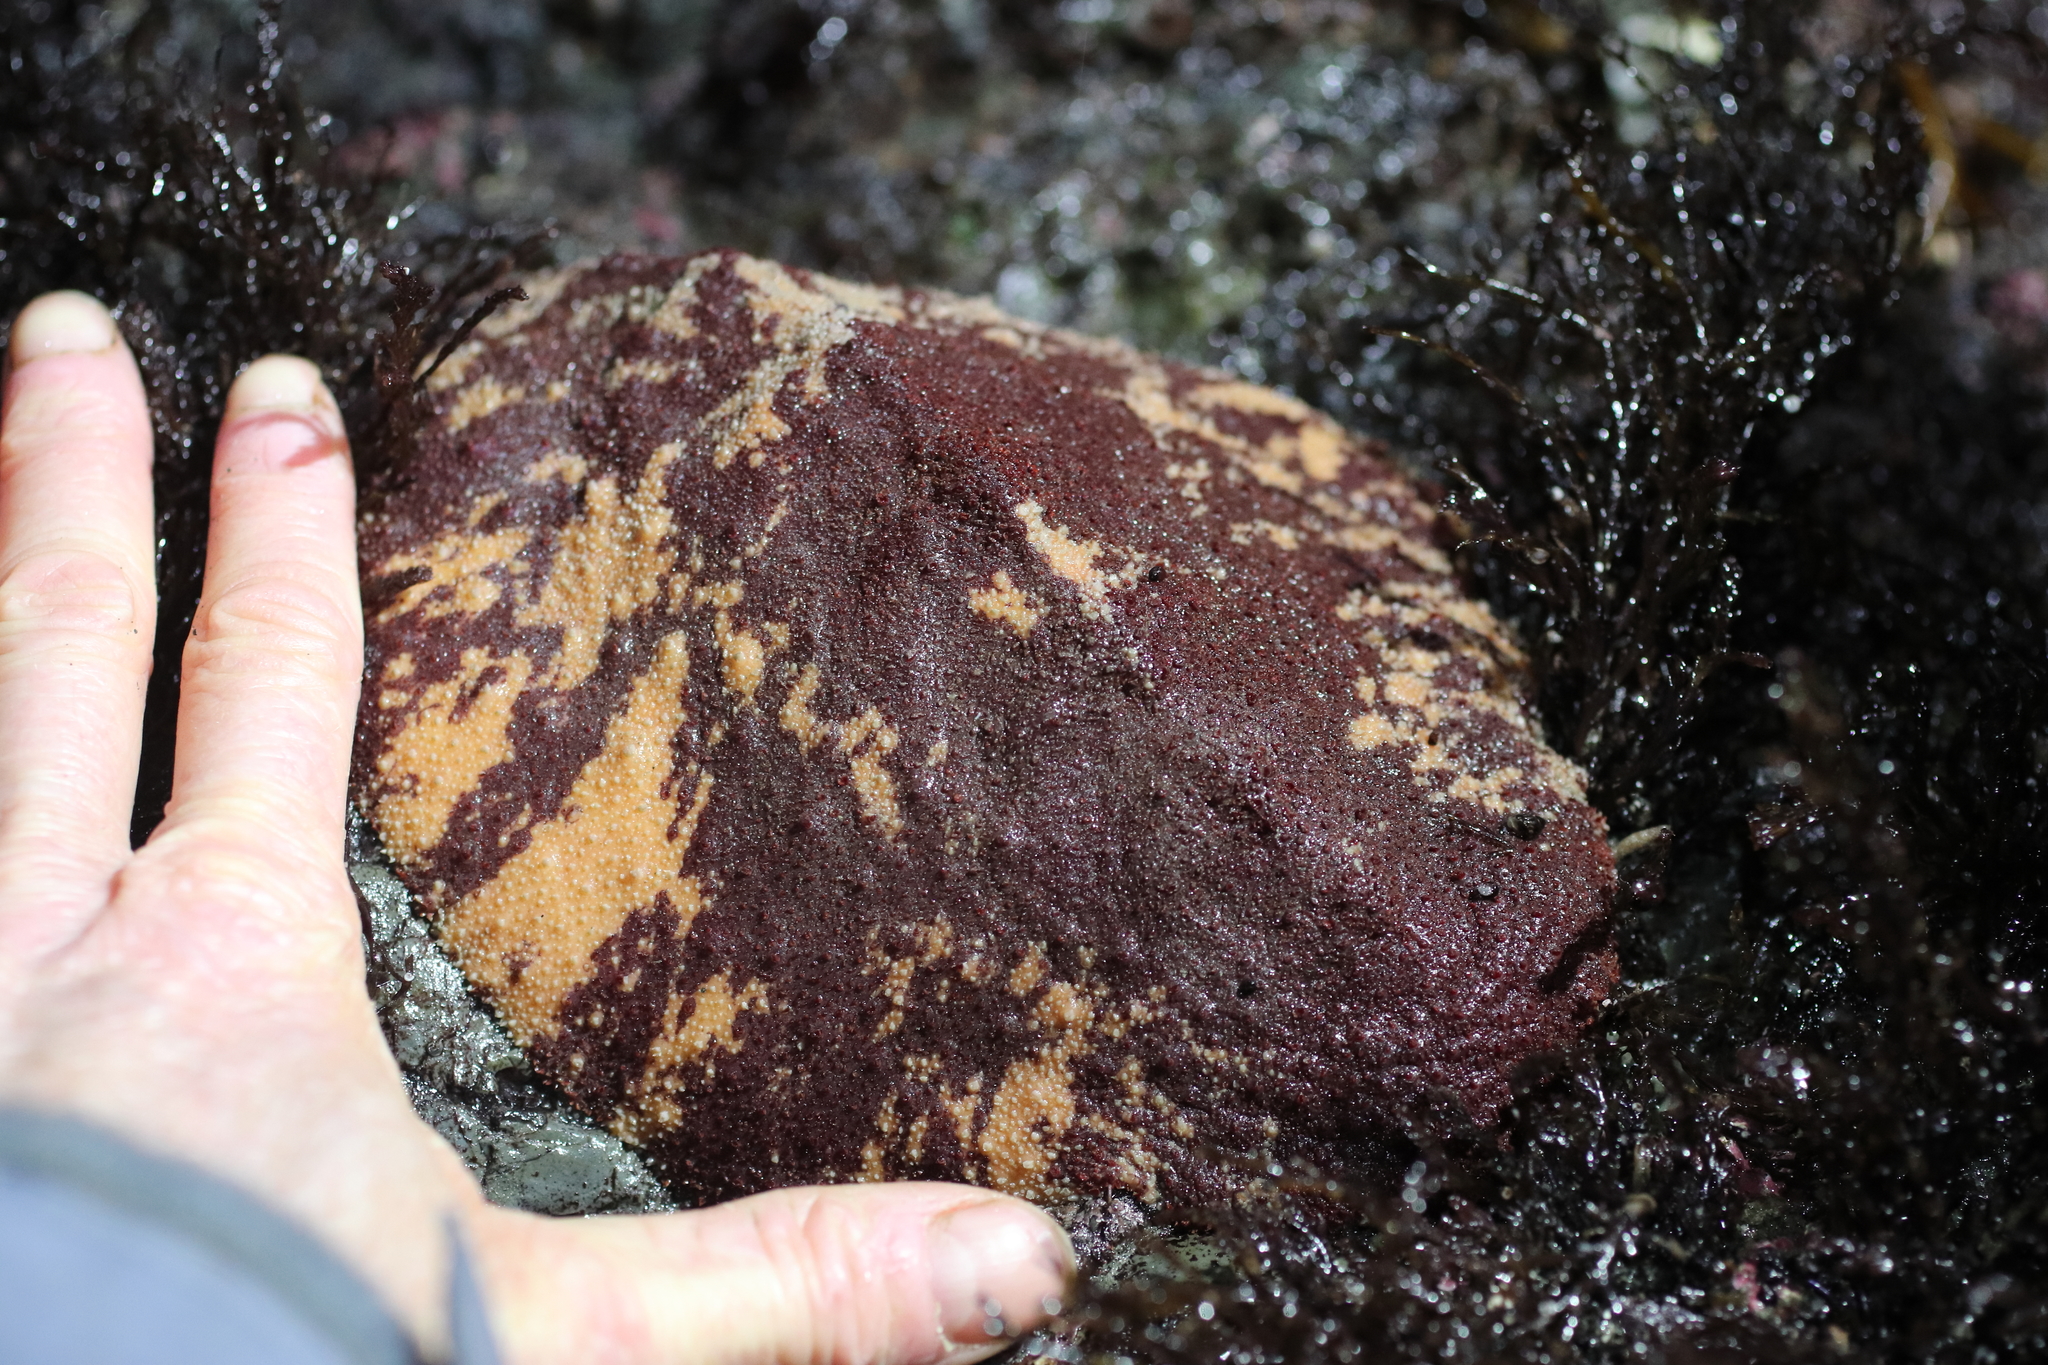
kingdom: Animalia
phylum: Mollusca
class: Polyplacophora
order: Chitonida
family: Acanthochitonidae
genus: Cryptochiton
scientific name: Cryptochiton stelleri
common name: Giant pacific chiton
